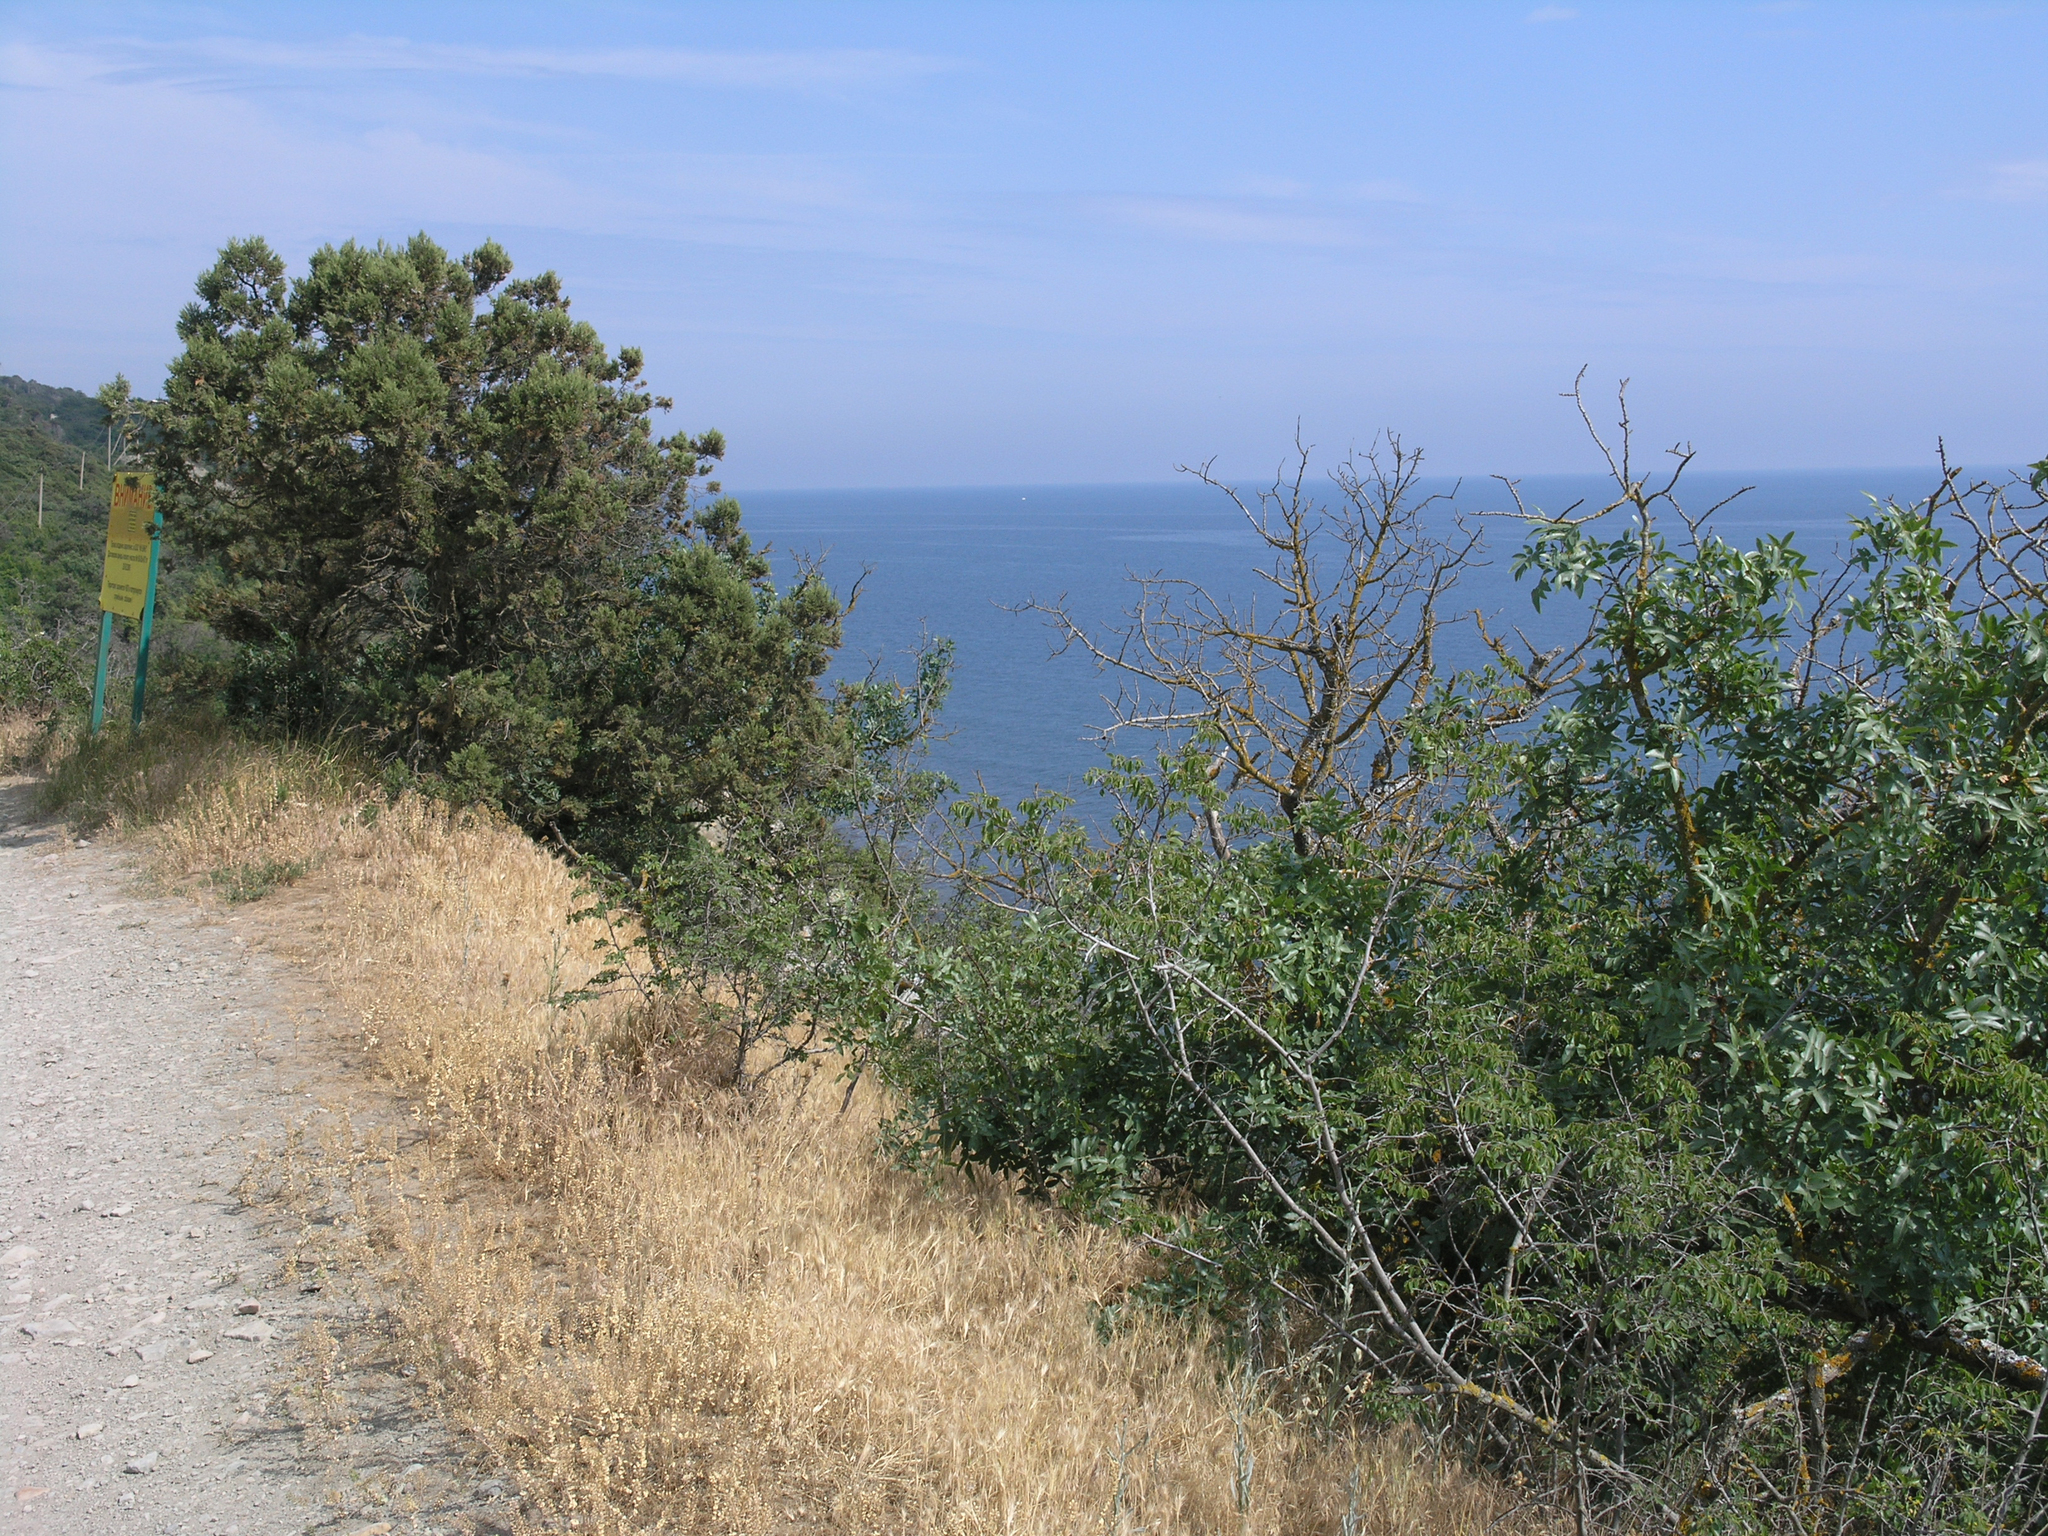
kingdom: Plantae
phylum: Tracheophyta
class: Pinopsida
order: Pinales
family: Cupressaceae
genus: Juniperus
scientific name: Juniperus excelsa
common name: Crimean juniper
